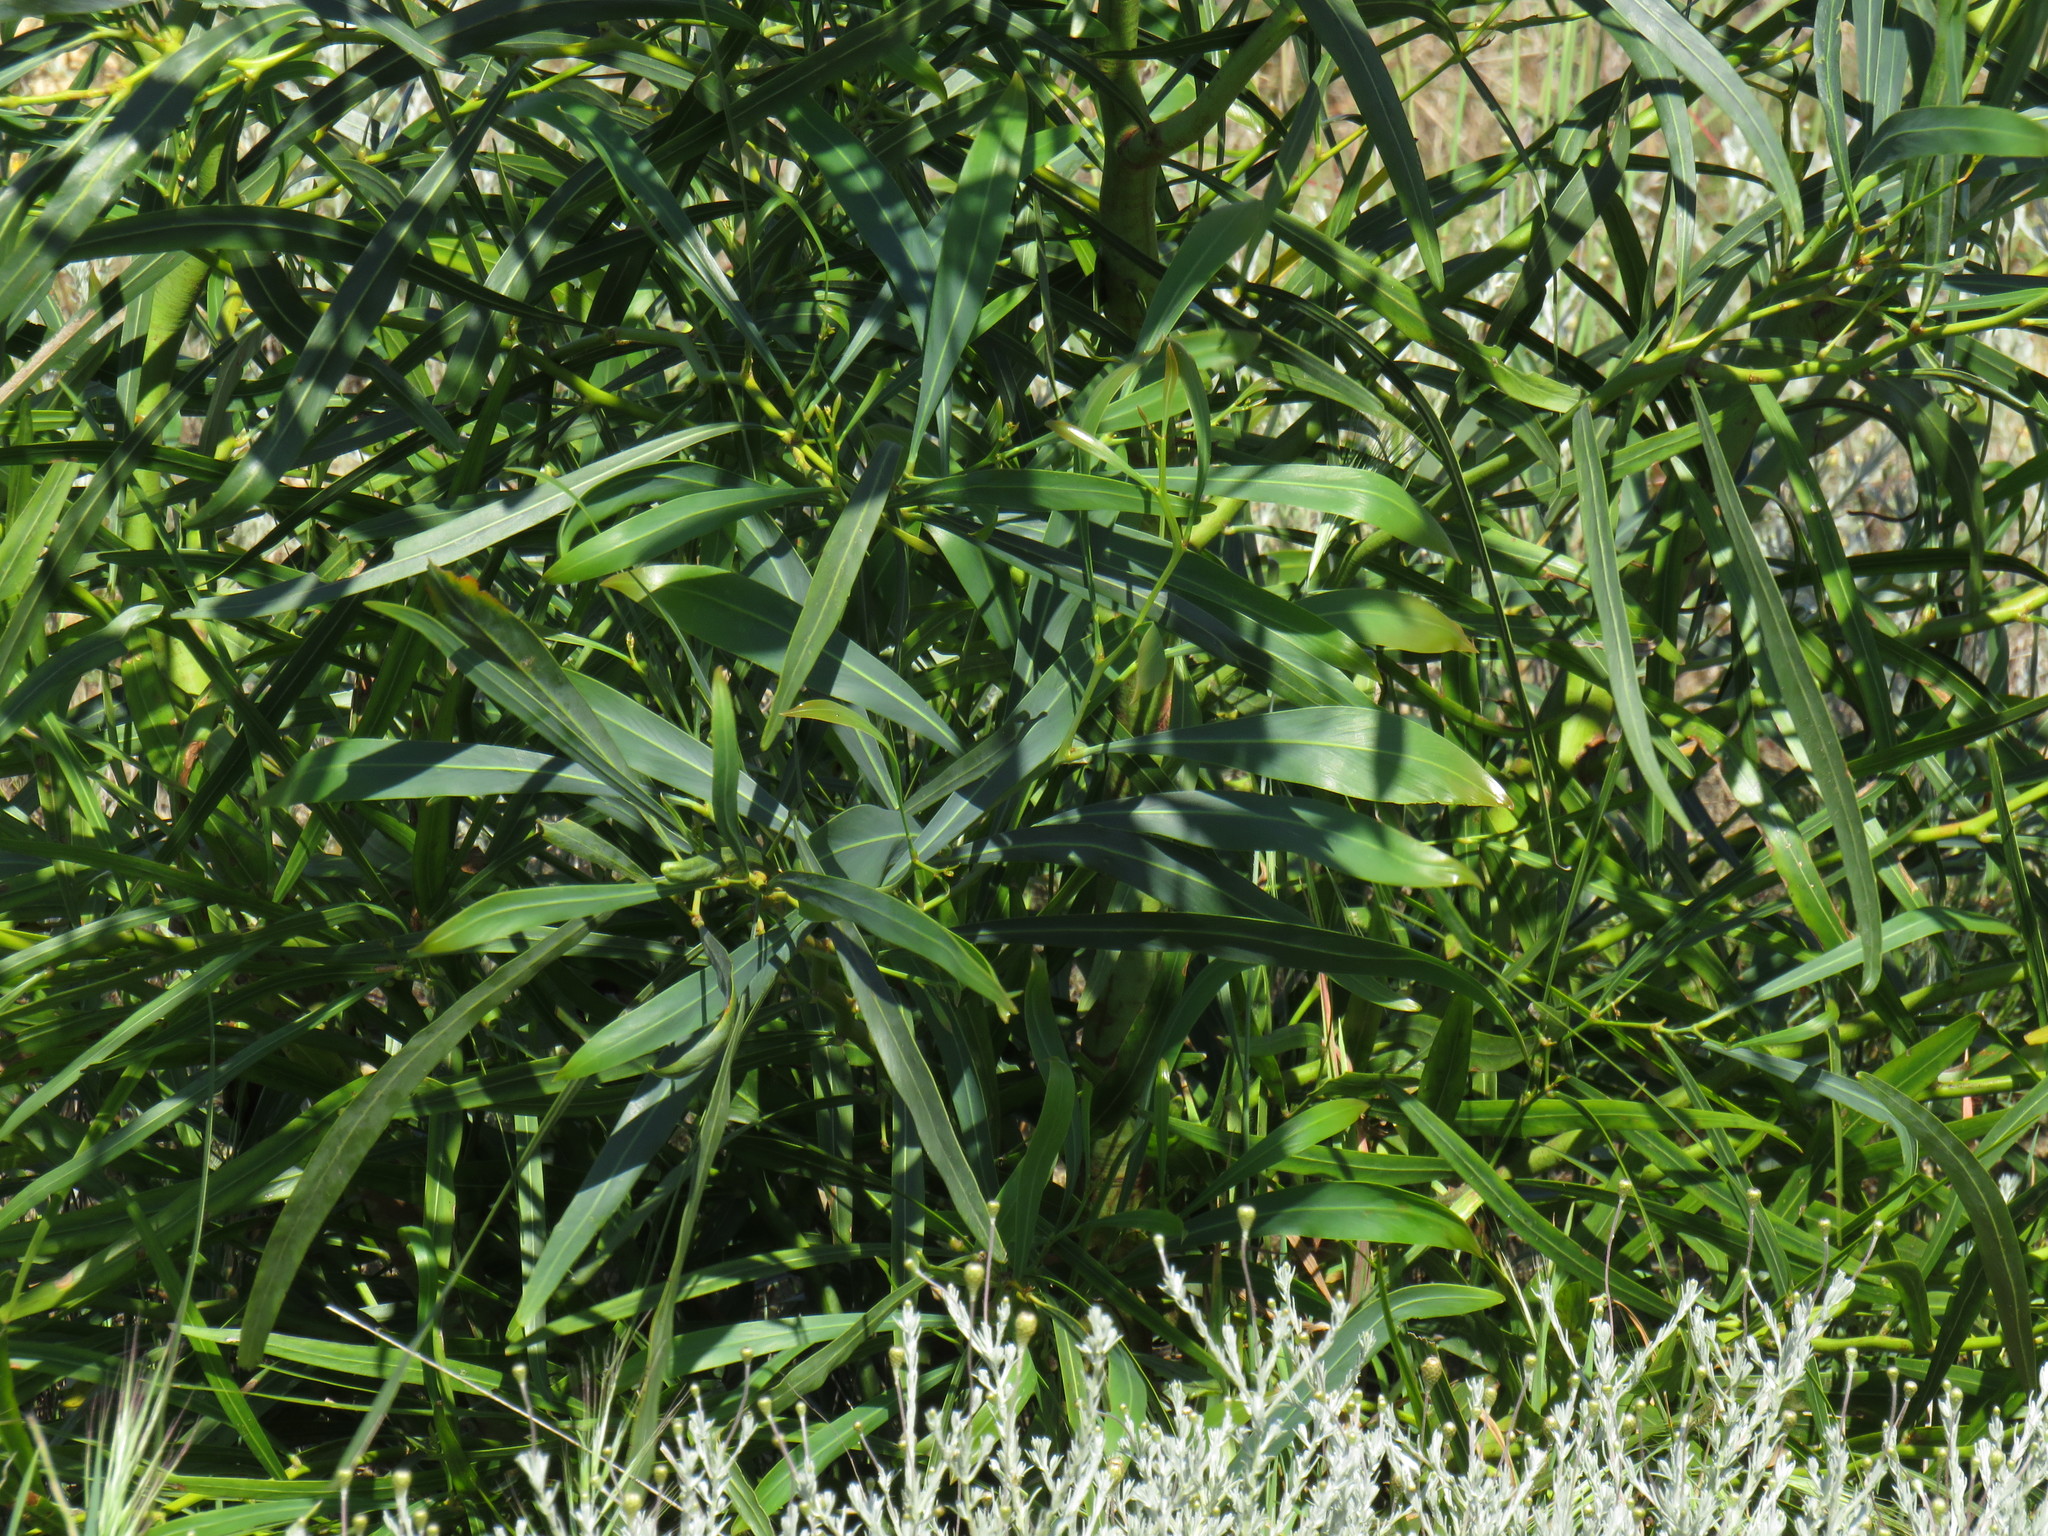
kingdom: Plantae
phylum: Tracheophyta
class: Magnoliopsida
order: Fabales
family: Fabaceae
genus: Acacia
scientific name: Acacia saligna
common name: Orange wattle
